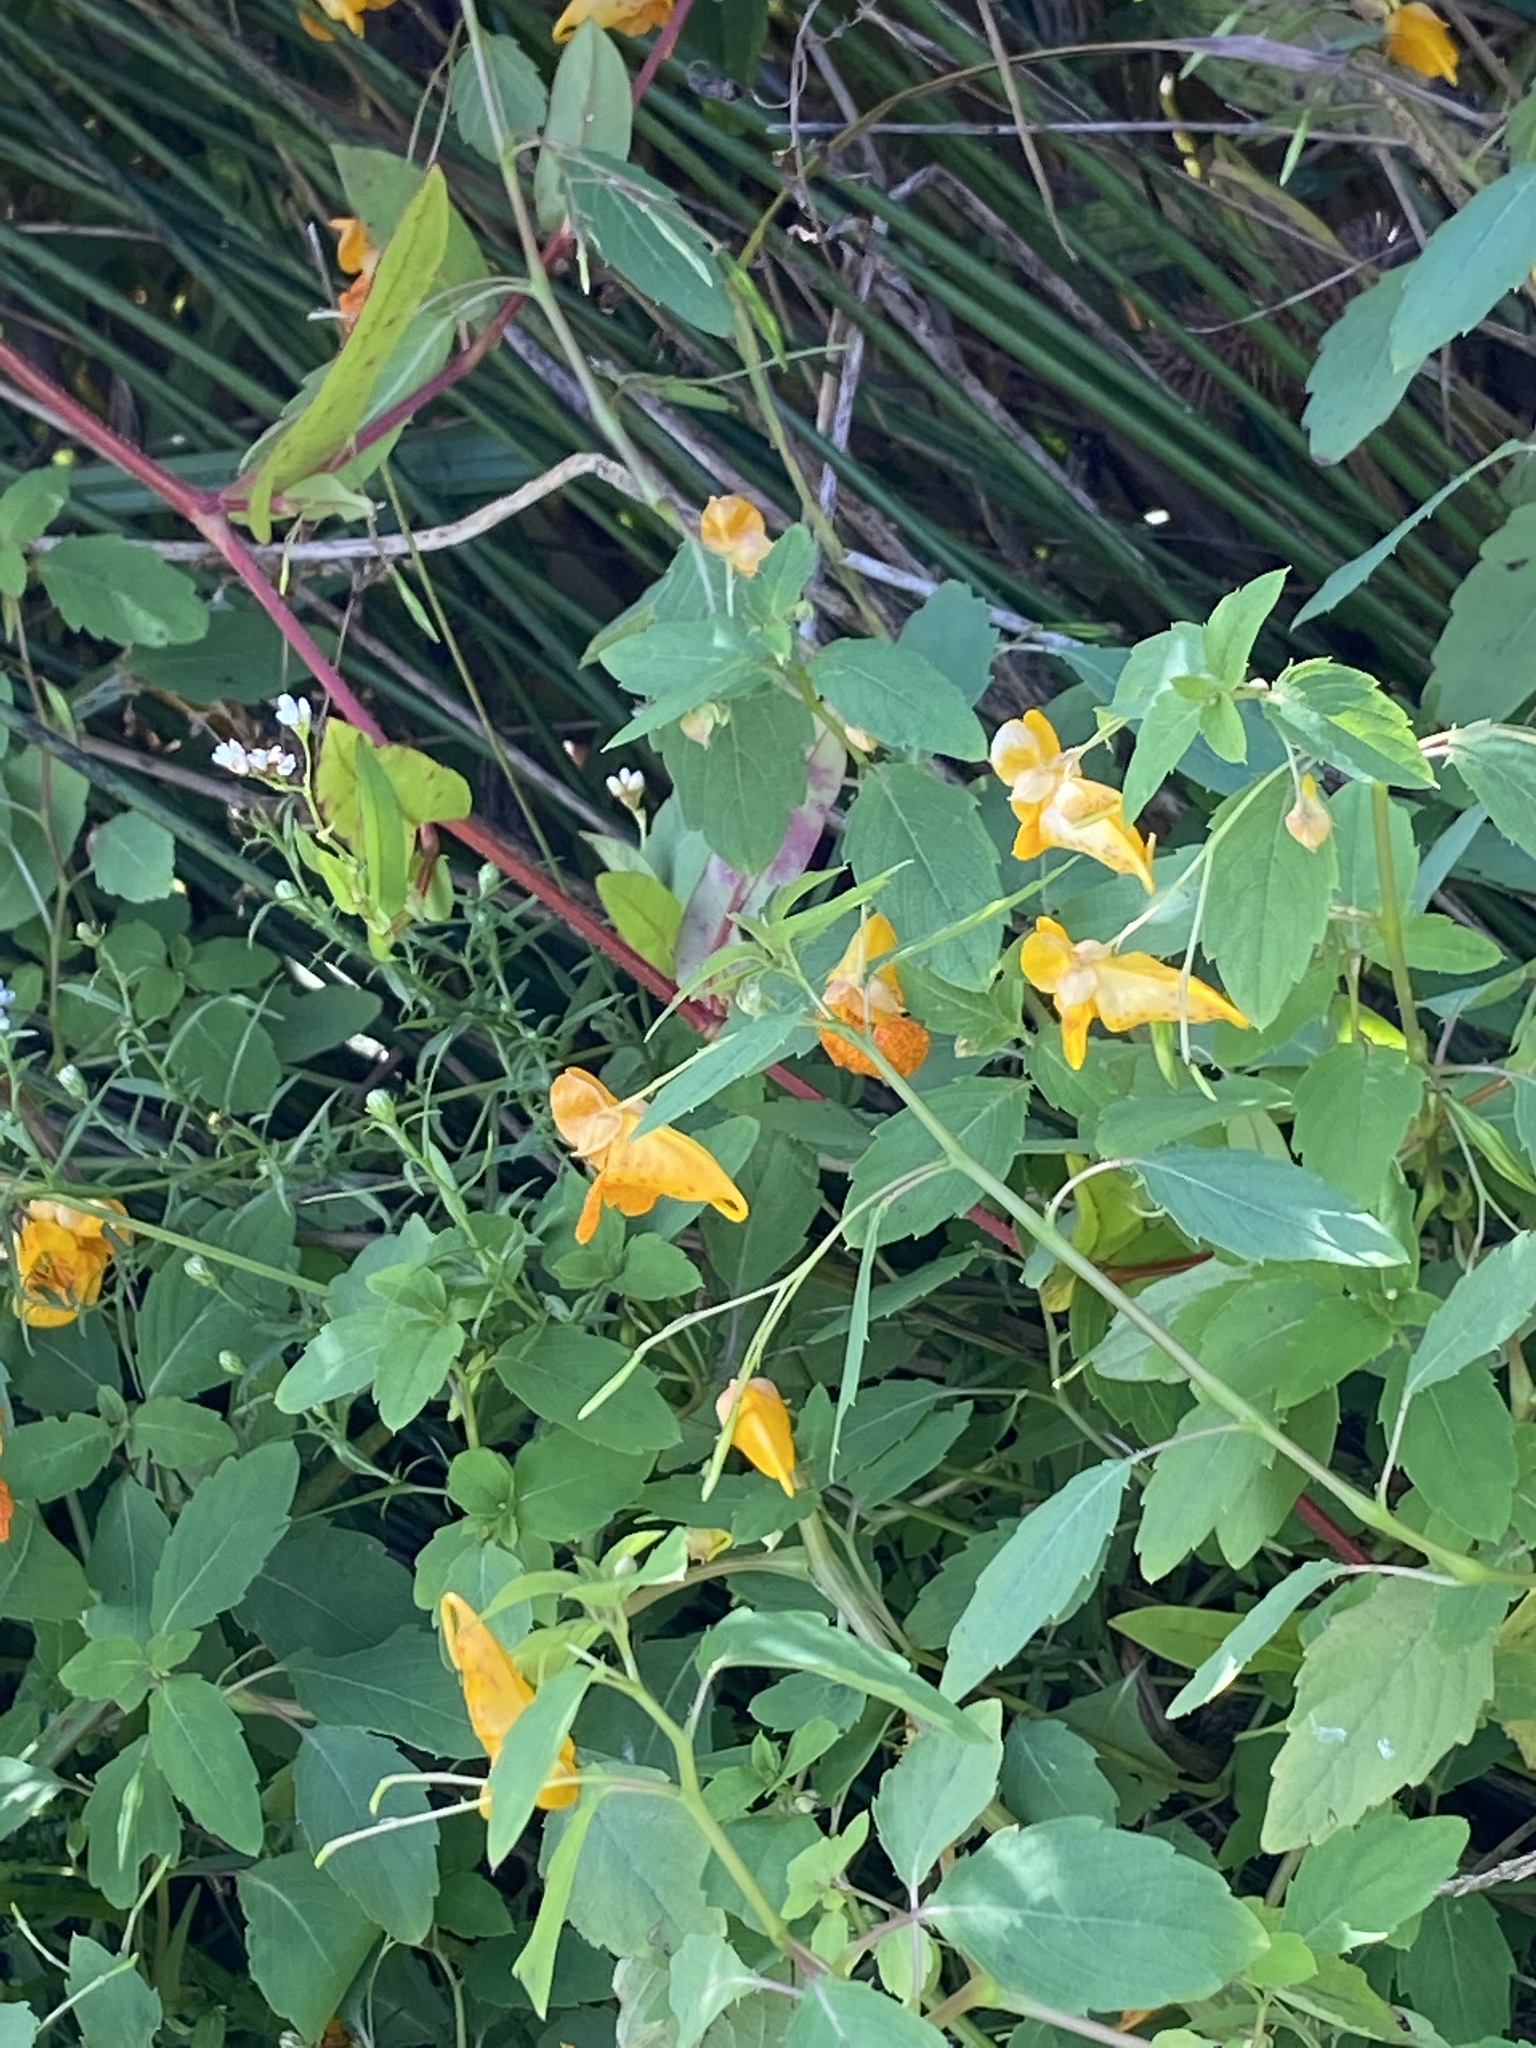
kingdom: Plantae
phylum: Tracheophyta
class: Magnoliopsida
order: Ericales
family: Balsaminaceae
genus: Impatiens
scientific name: Impatiens capensis
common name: Orange balsam
